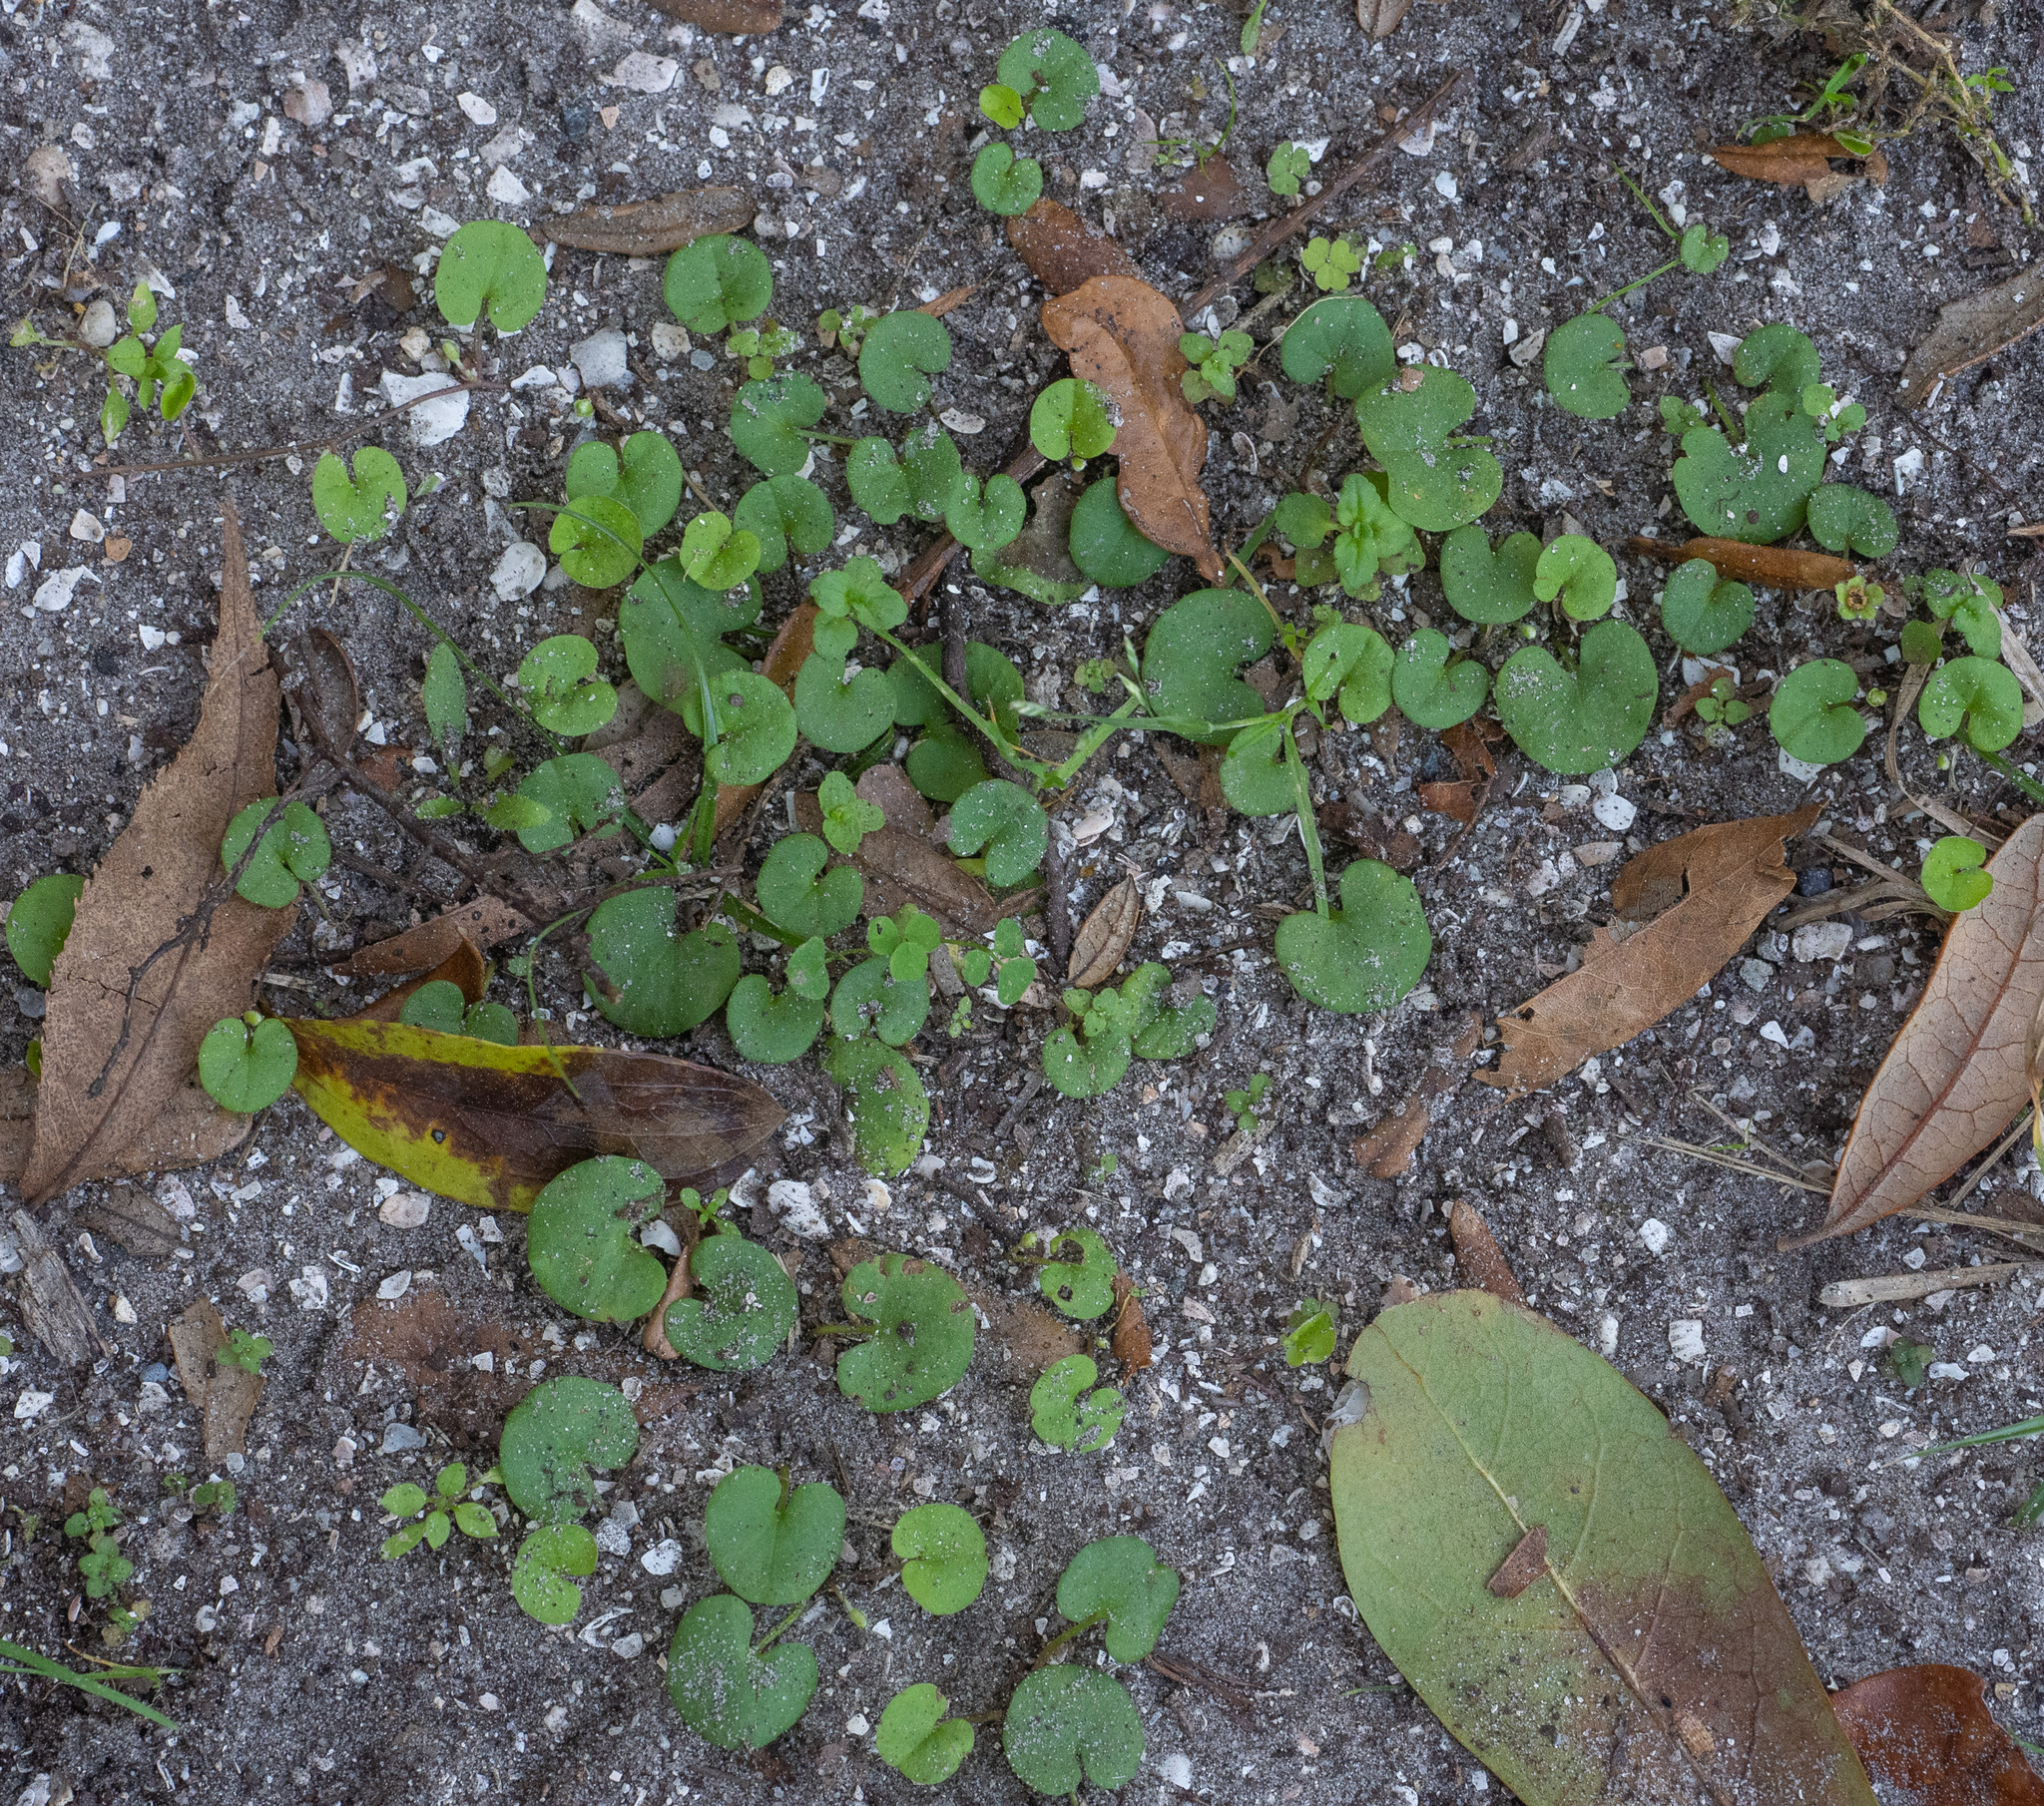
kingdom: Plantae
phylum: Tracheophyta
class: Magnoliopsida
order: Solanales
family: Convolvulaceae
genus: Dichondra
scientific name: Dichondra carolinensis
